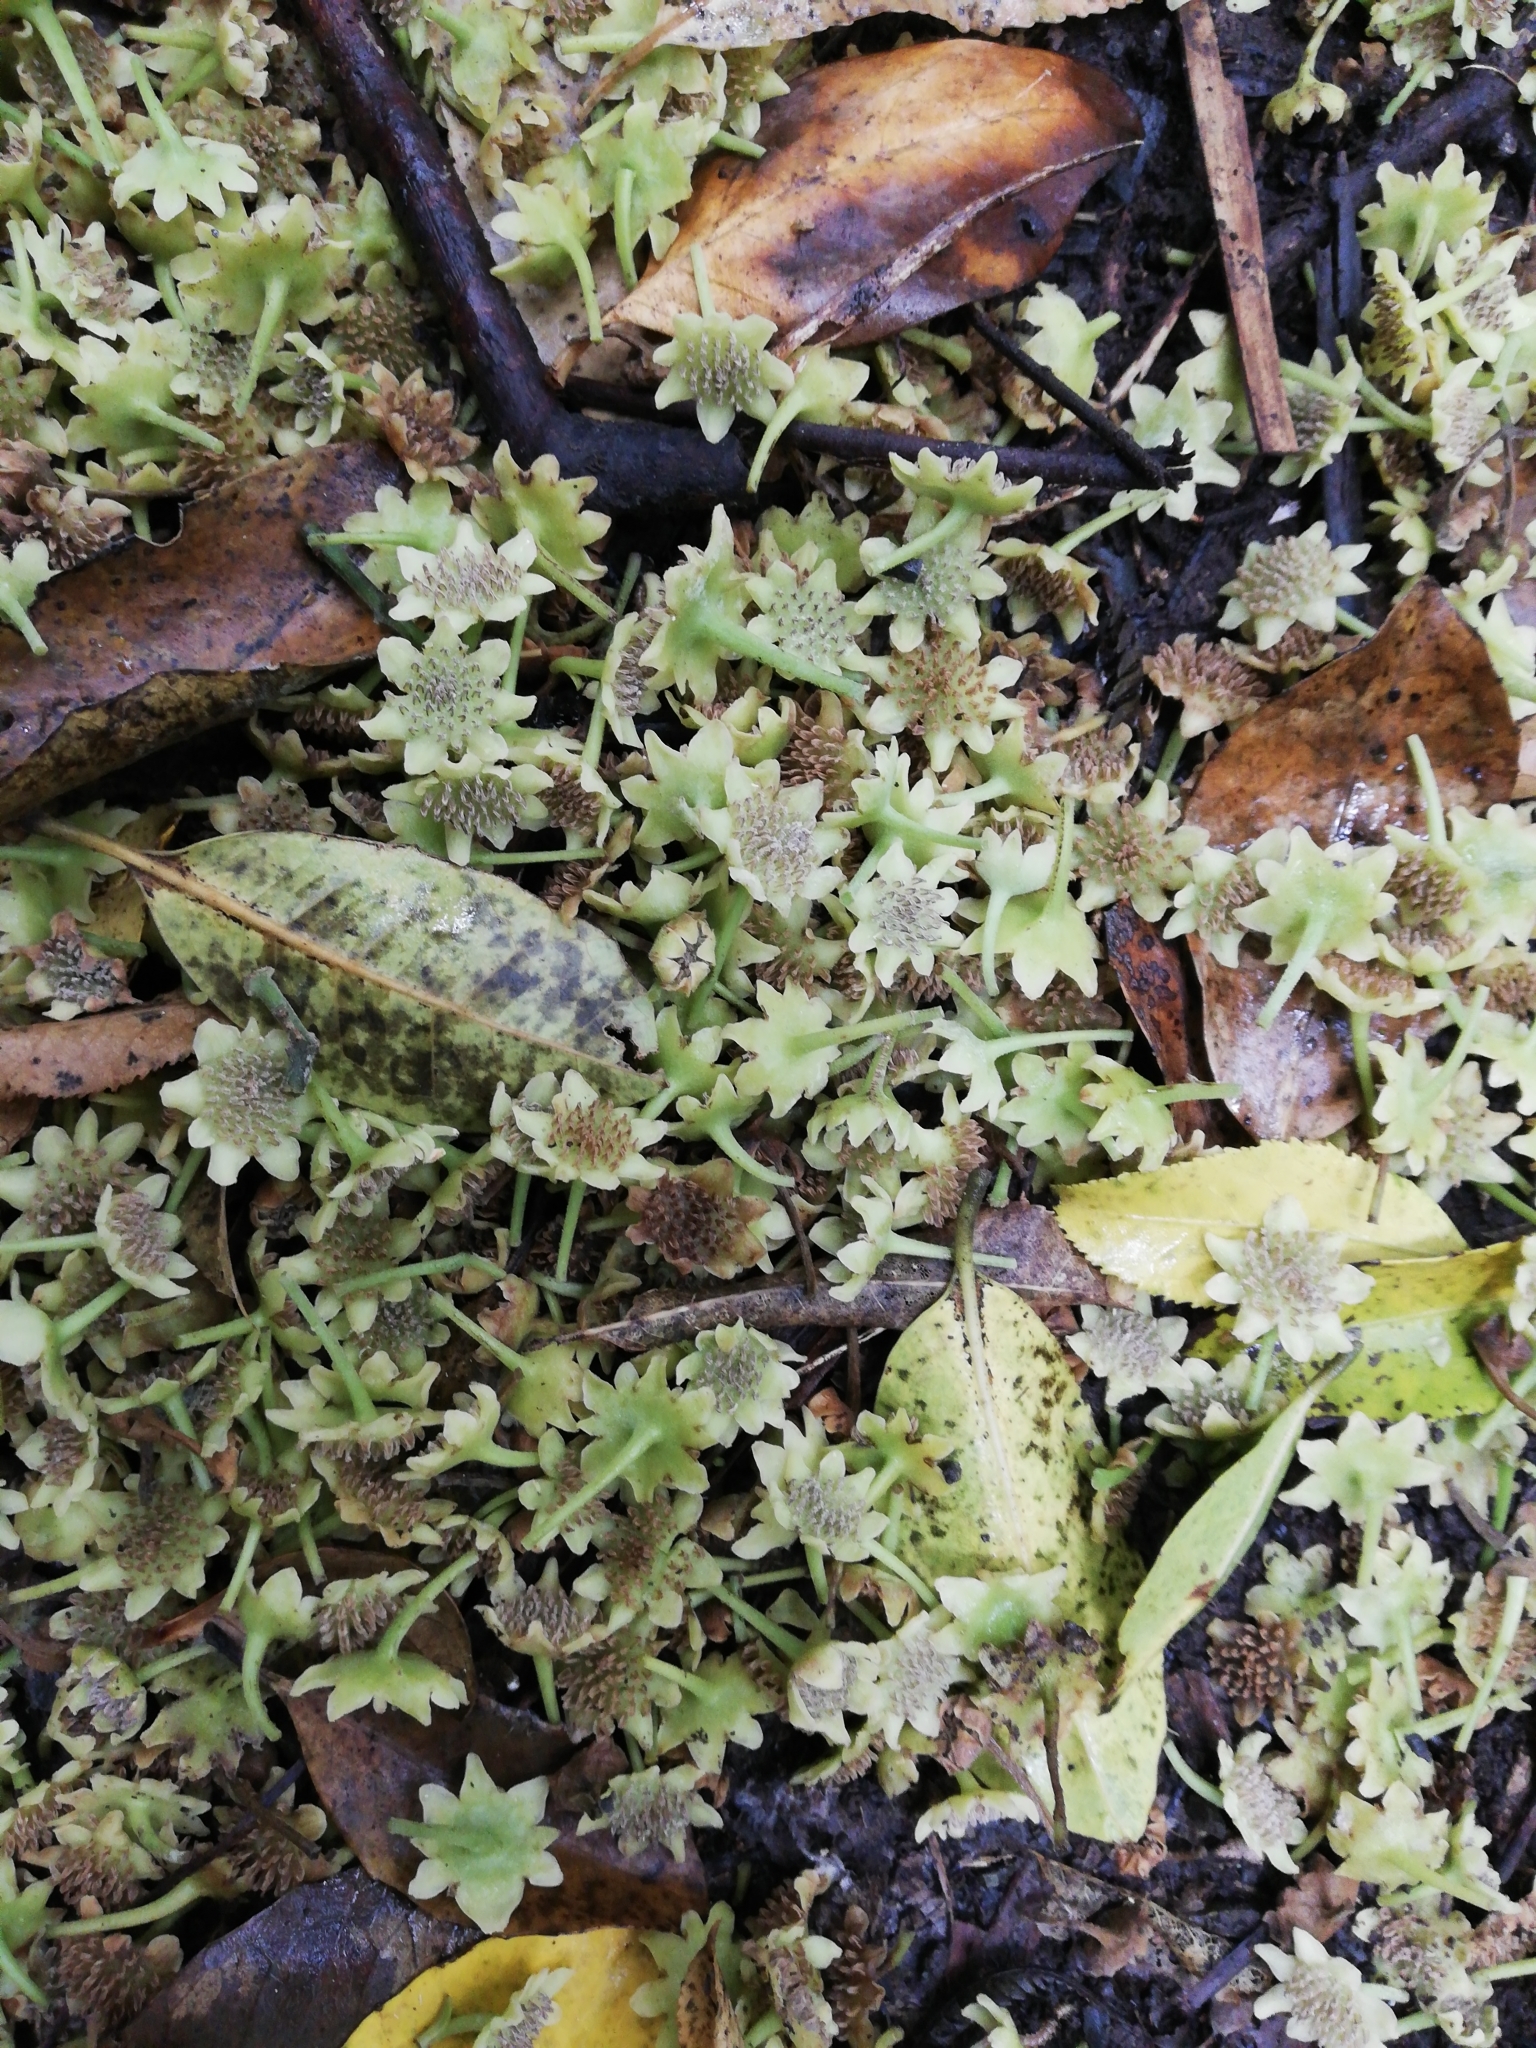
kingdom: Plantae
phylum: Tracheophyta
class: Magnoliopsida
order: Laurales
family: Monimiaceae
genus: Hedycarya
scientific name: Hedycarya arborea
